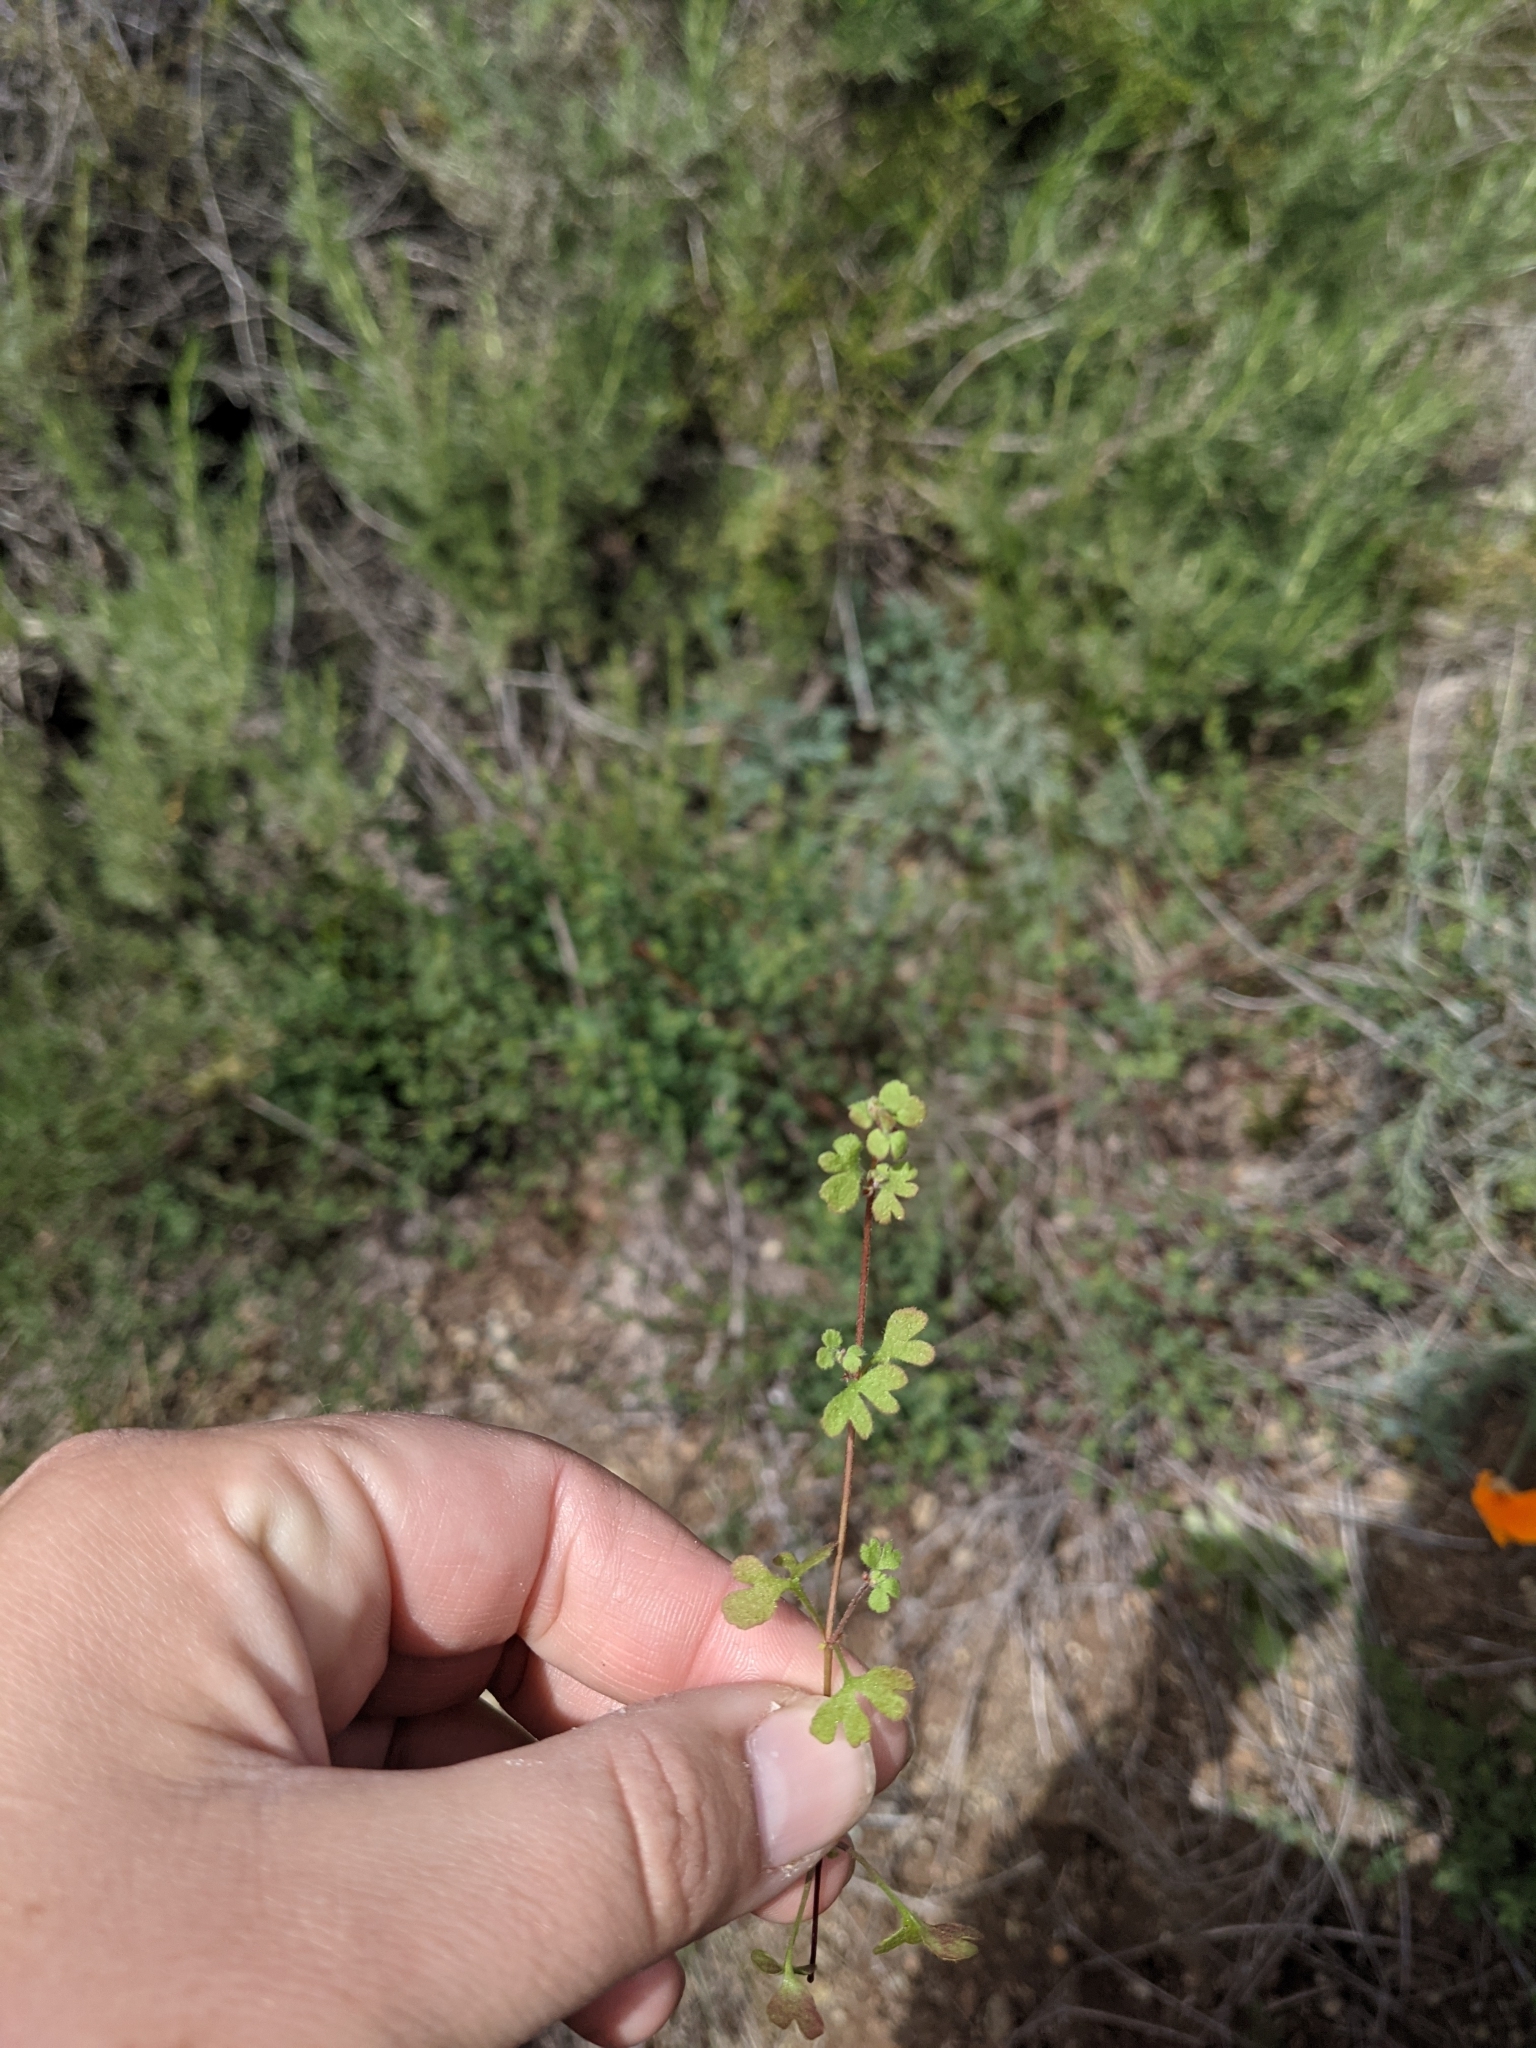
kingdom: Plantae
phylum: Tracheophyta
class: Magnoliopsida
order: Caryophyllales
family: Polygonaceae
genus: Pterostegia
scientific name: Pterostegia drymarioides
